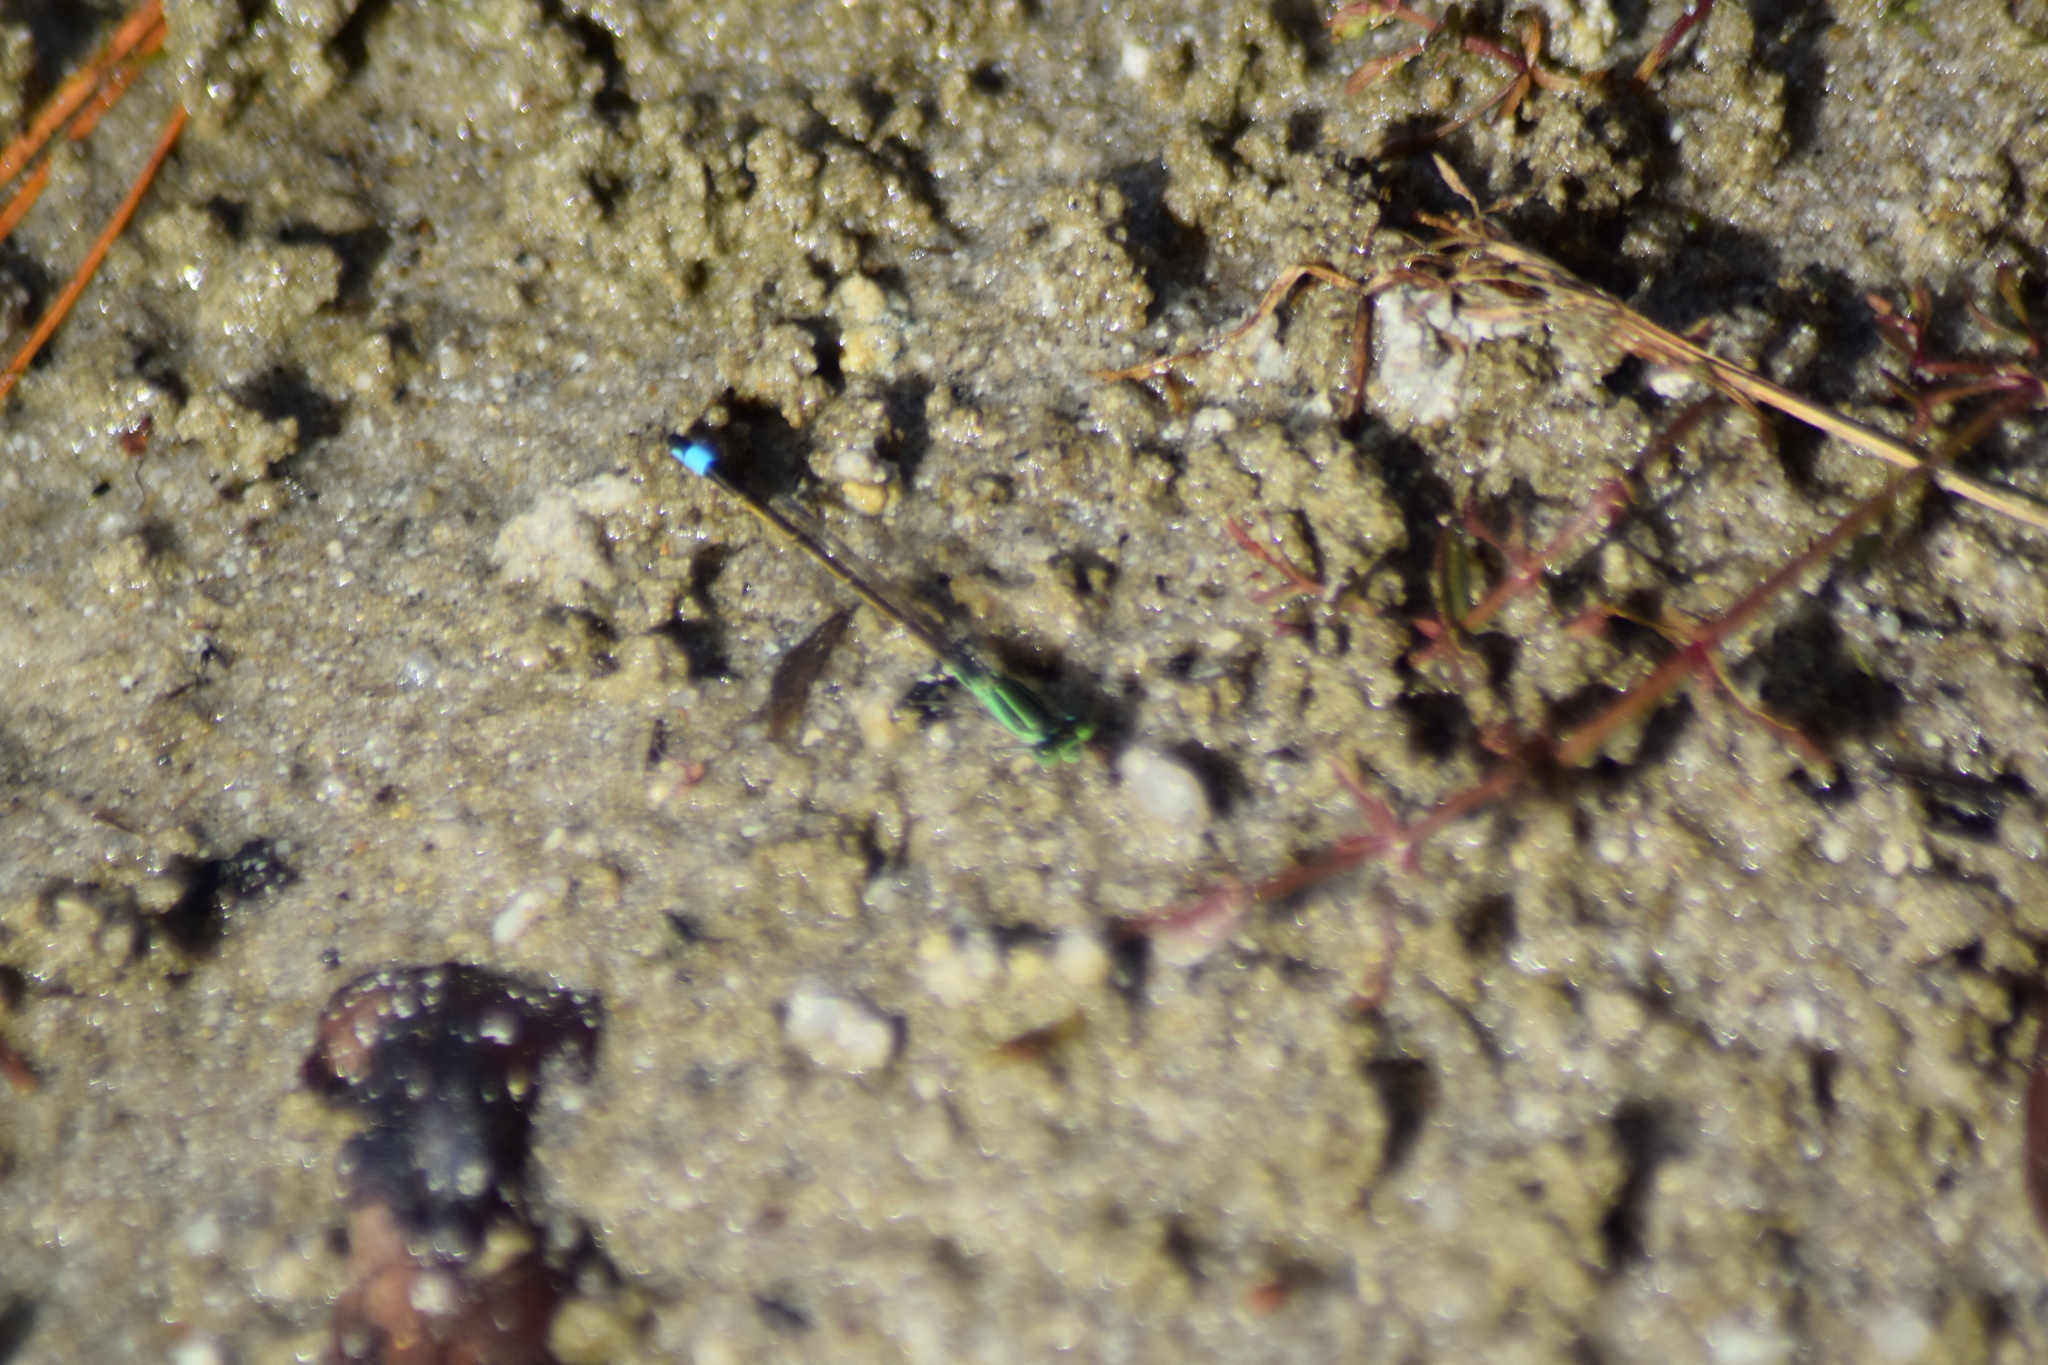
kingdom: Animalia
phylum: Arthropoda
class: Insecta
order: Odonata
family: Coenagrionidae
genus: Ischnura
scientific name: Ischnura ramburii
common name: Rambur's forktail
